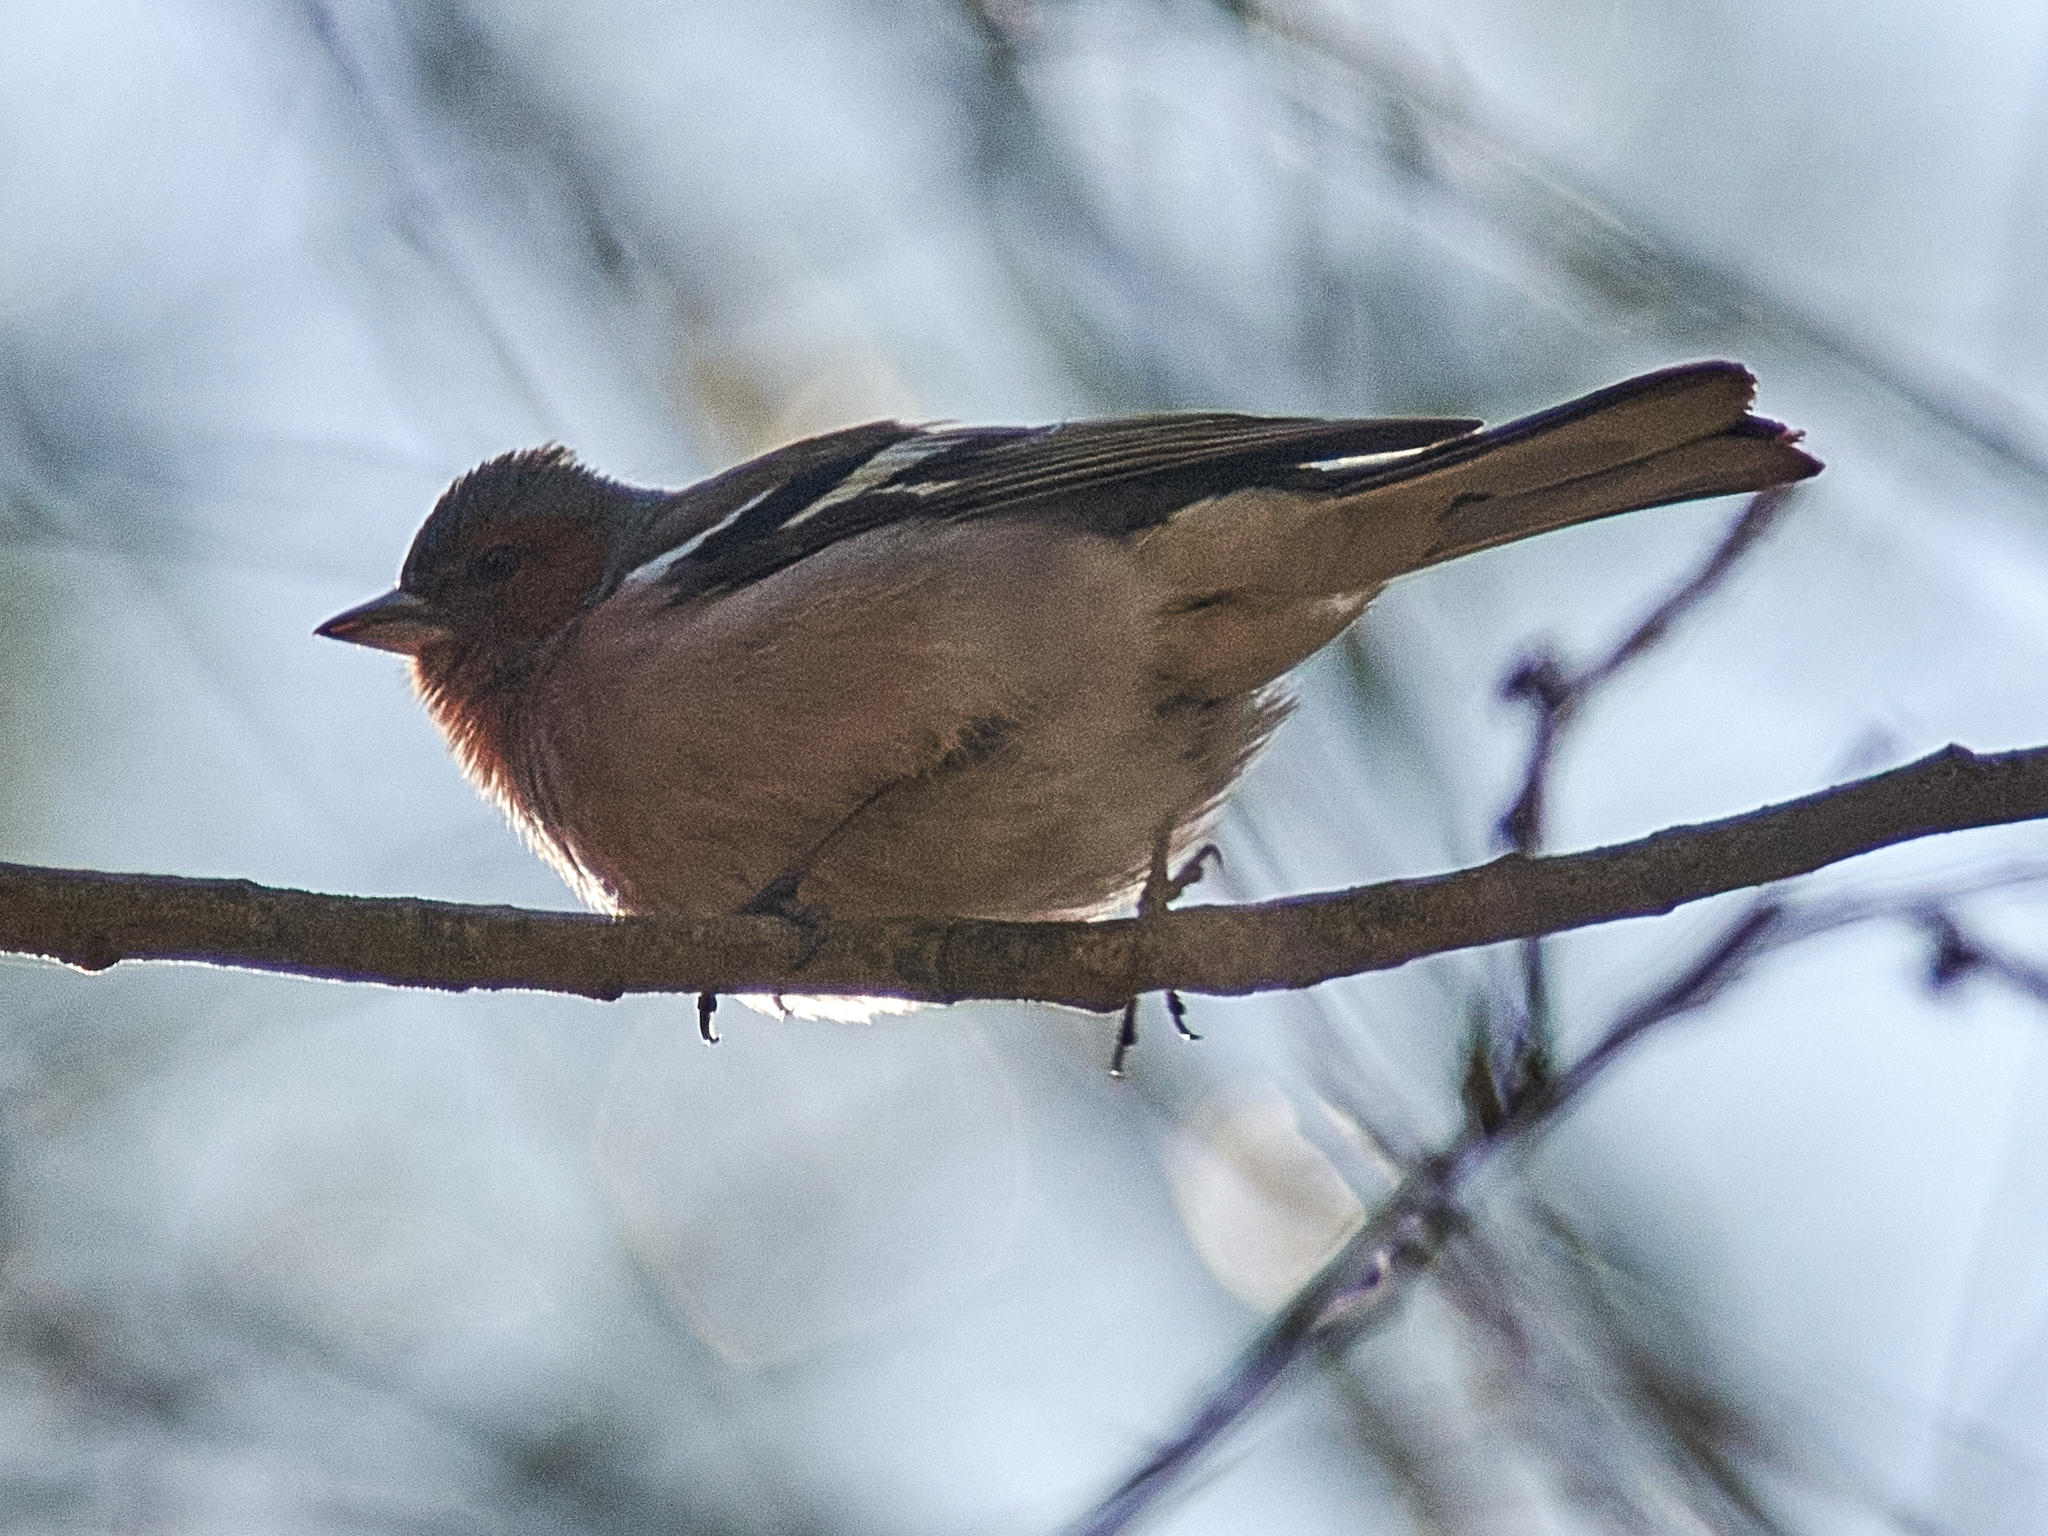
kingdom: Animalia
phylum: Chordata
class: Aves
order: Passeriformes
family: Fringillidae
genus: Fringilla
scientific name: Fringilla coelebs
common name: Common chaffinch
